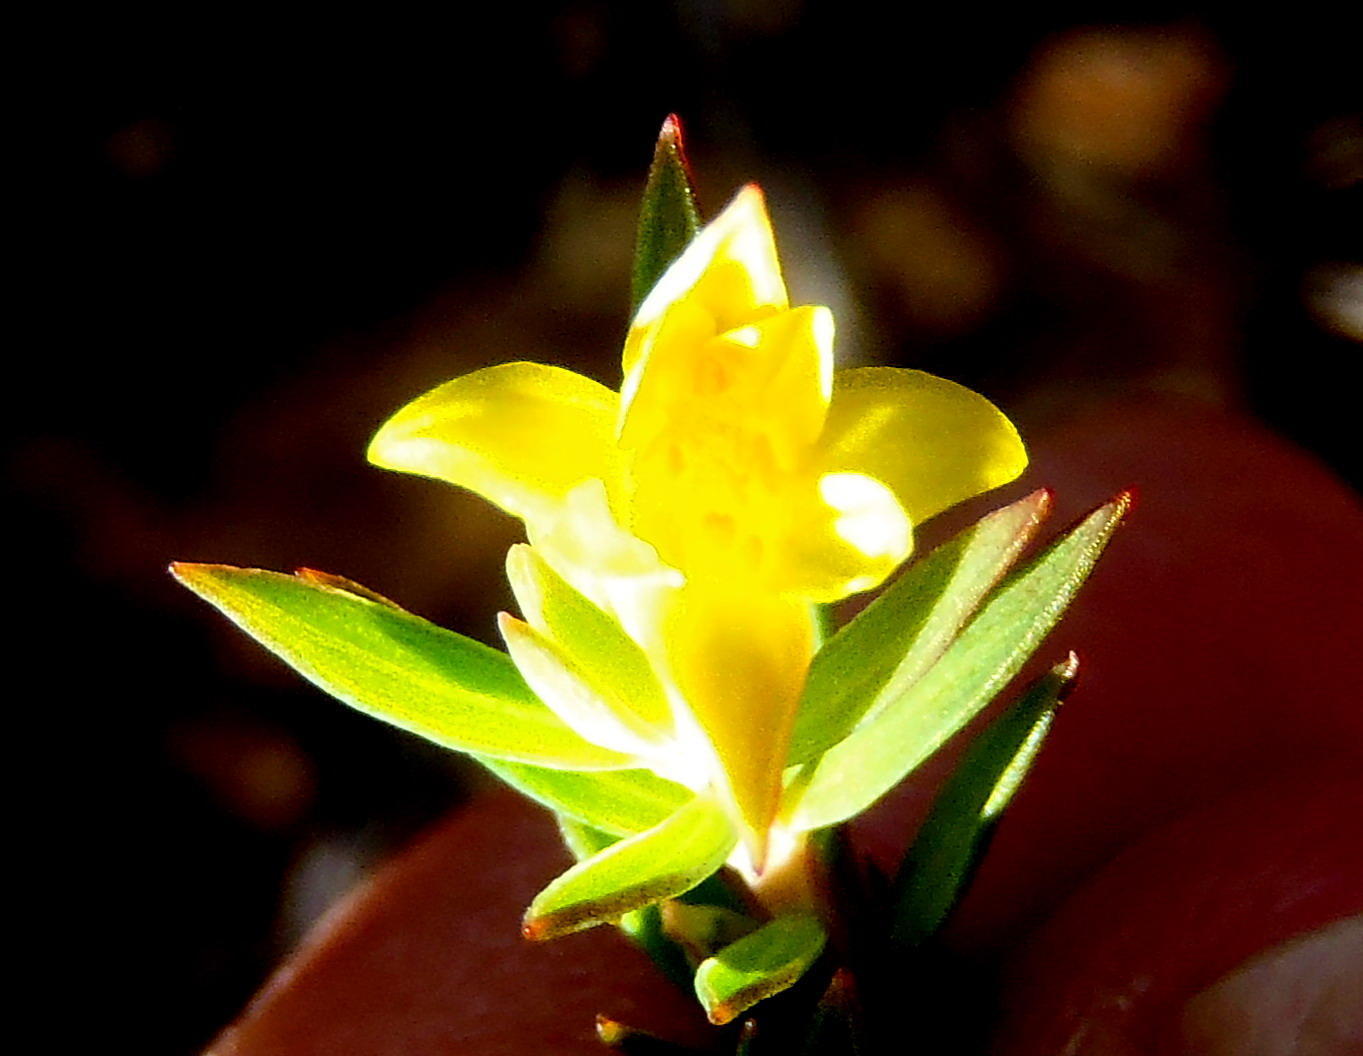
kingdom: Plantae
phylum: Tracheophyta
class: Magnoliopsida
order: Malvales
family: Thymelaeaceae
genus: Gnidia
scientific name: Gnidia juniperifolia
